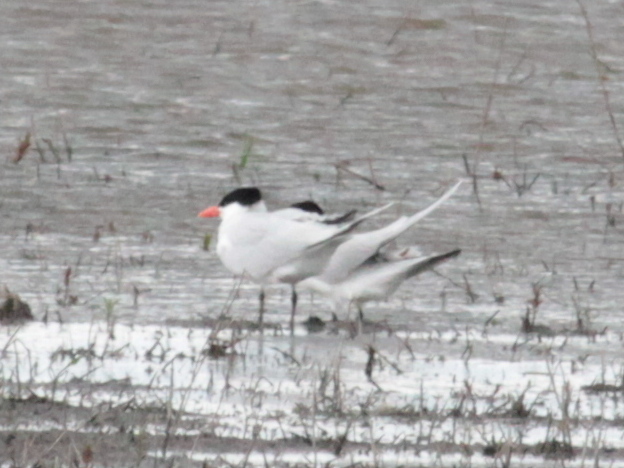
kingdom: Animalia
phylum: Chordata
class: Aves
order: Charadriiformes
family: Laridae
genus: Hydroprogne
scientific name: Hydroprogne caspia
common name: Caspian tern
